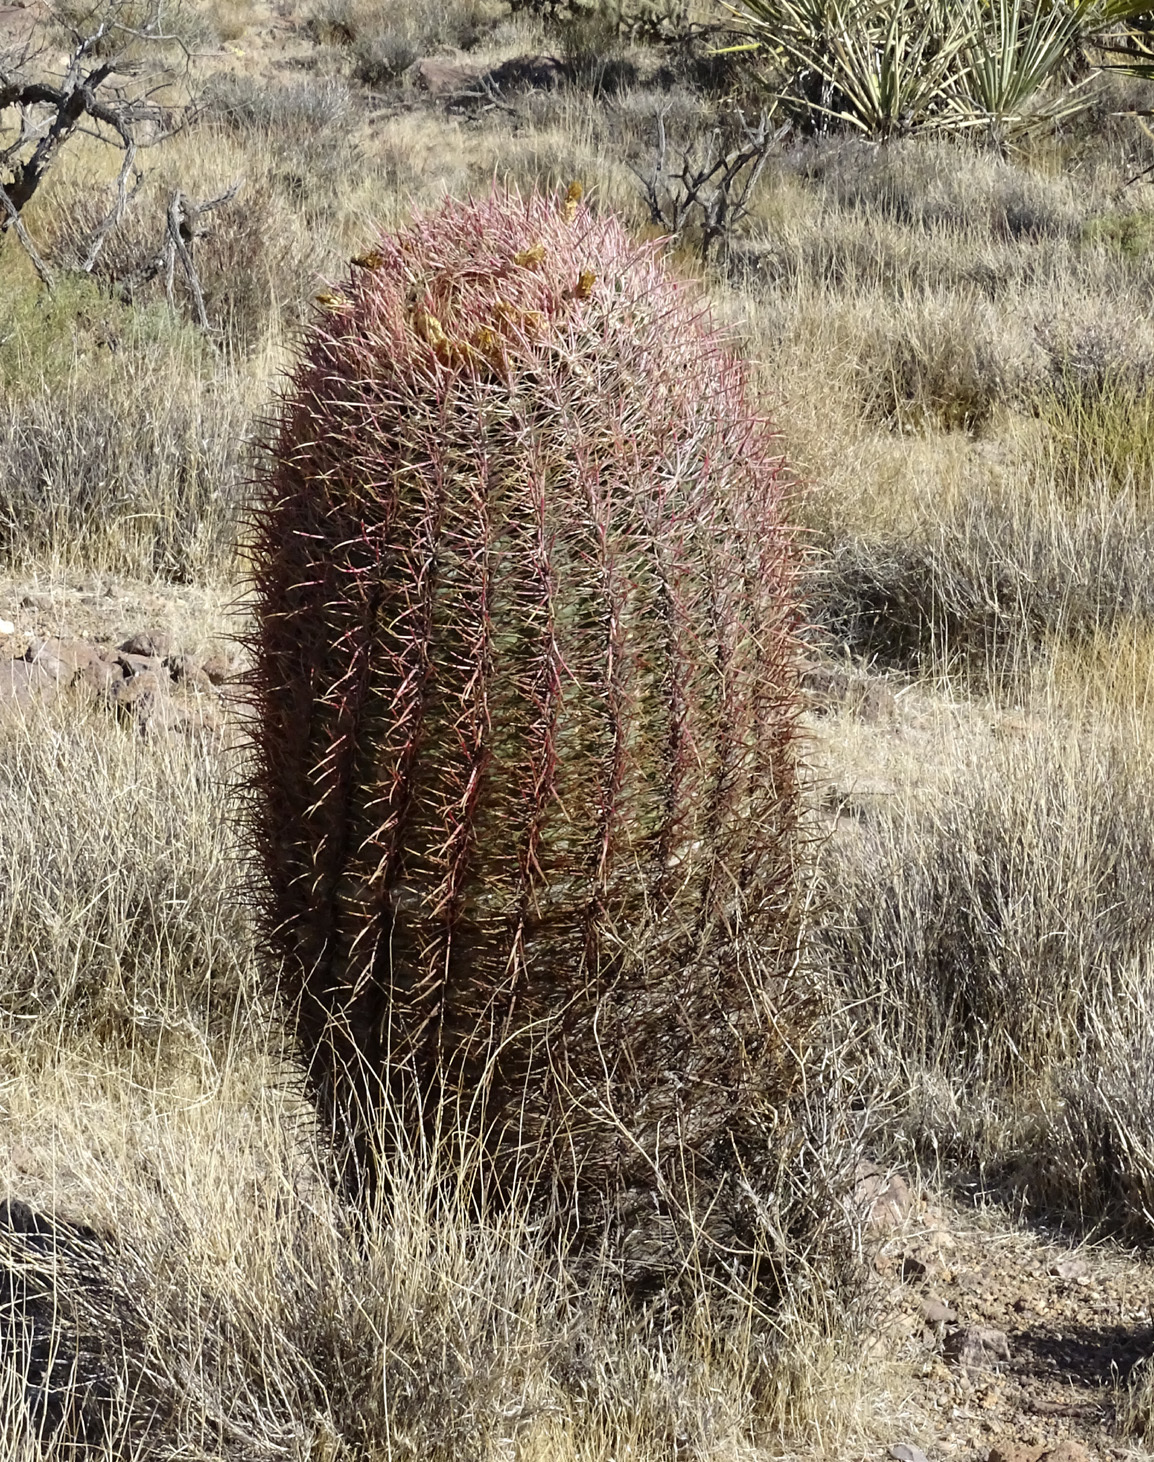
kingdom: Plantae
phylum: Tracheophyta
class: Magnoliopsida
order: Caryophyllales
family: Cactaceae
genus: Ferocactus
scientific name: Ferocactus cylindraceus
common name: California barrel cactus
